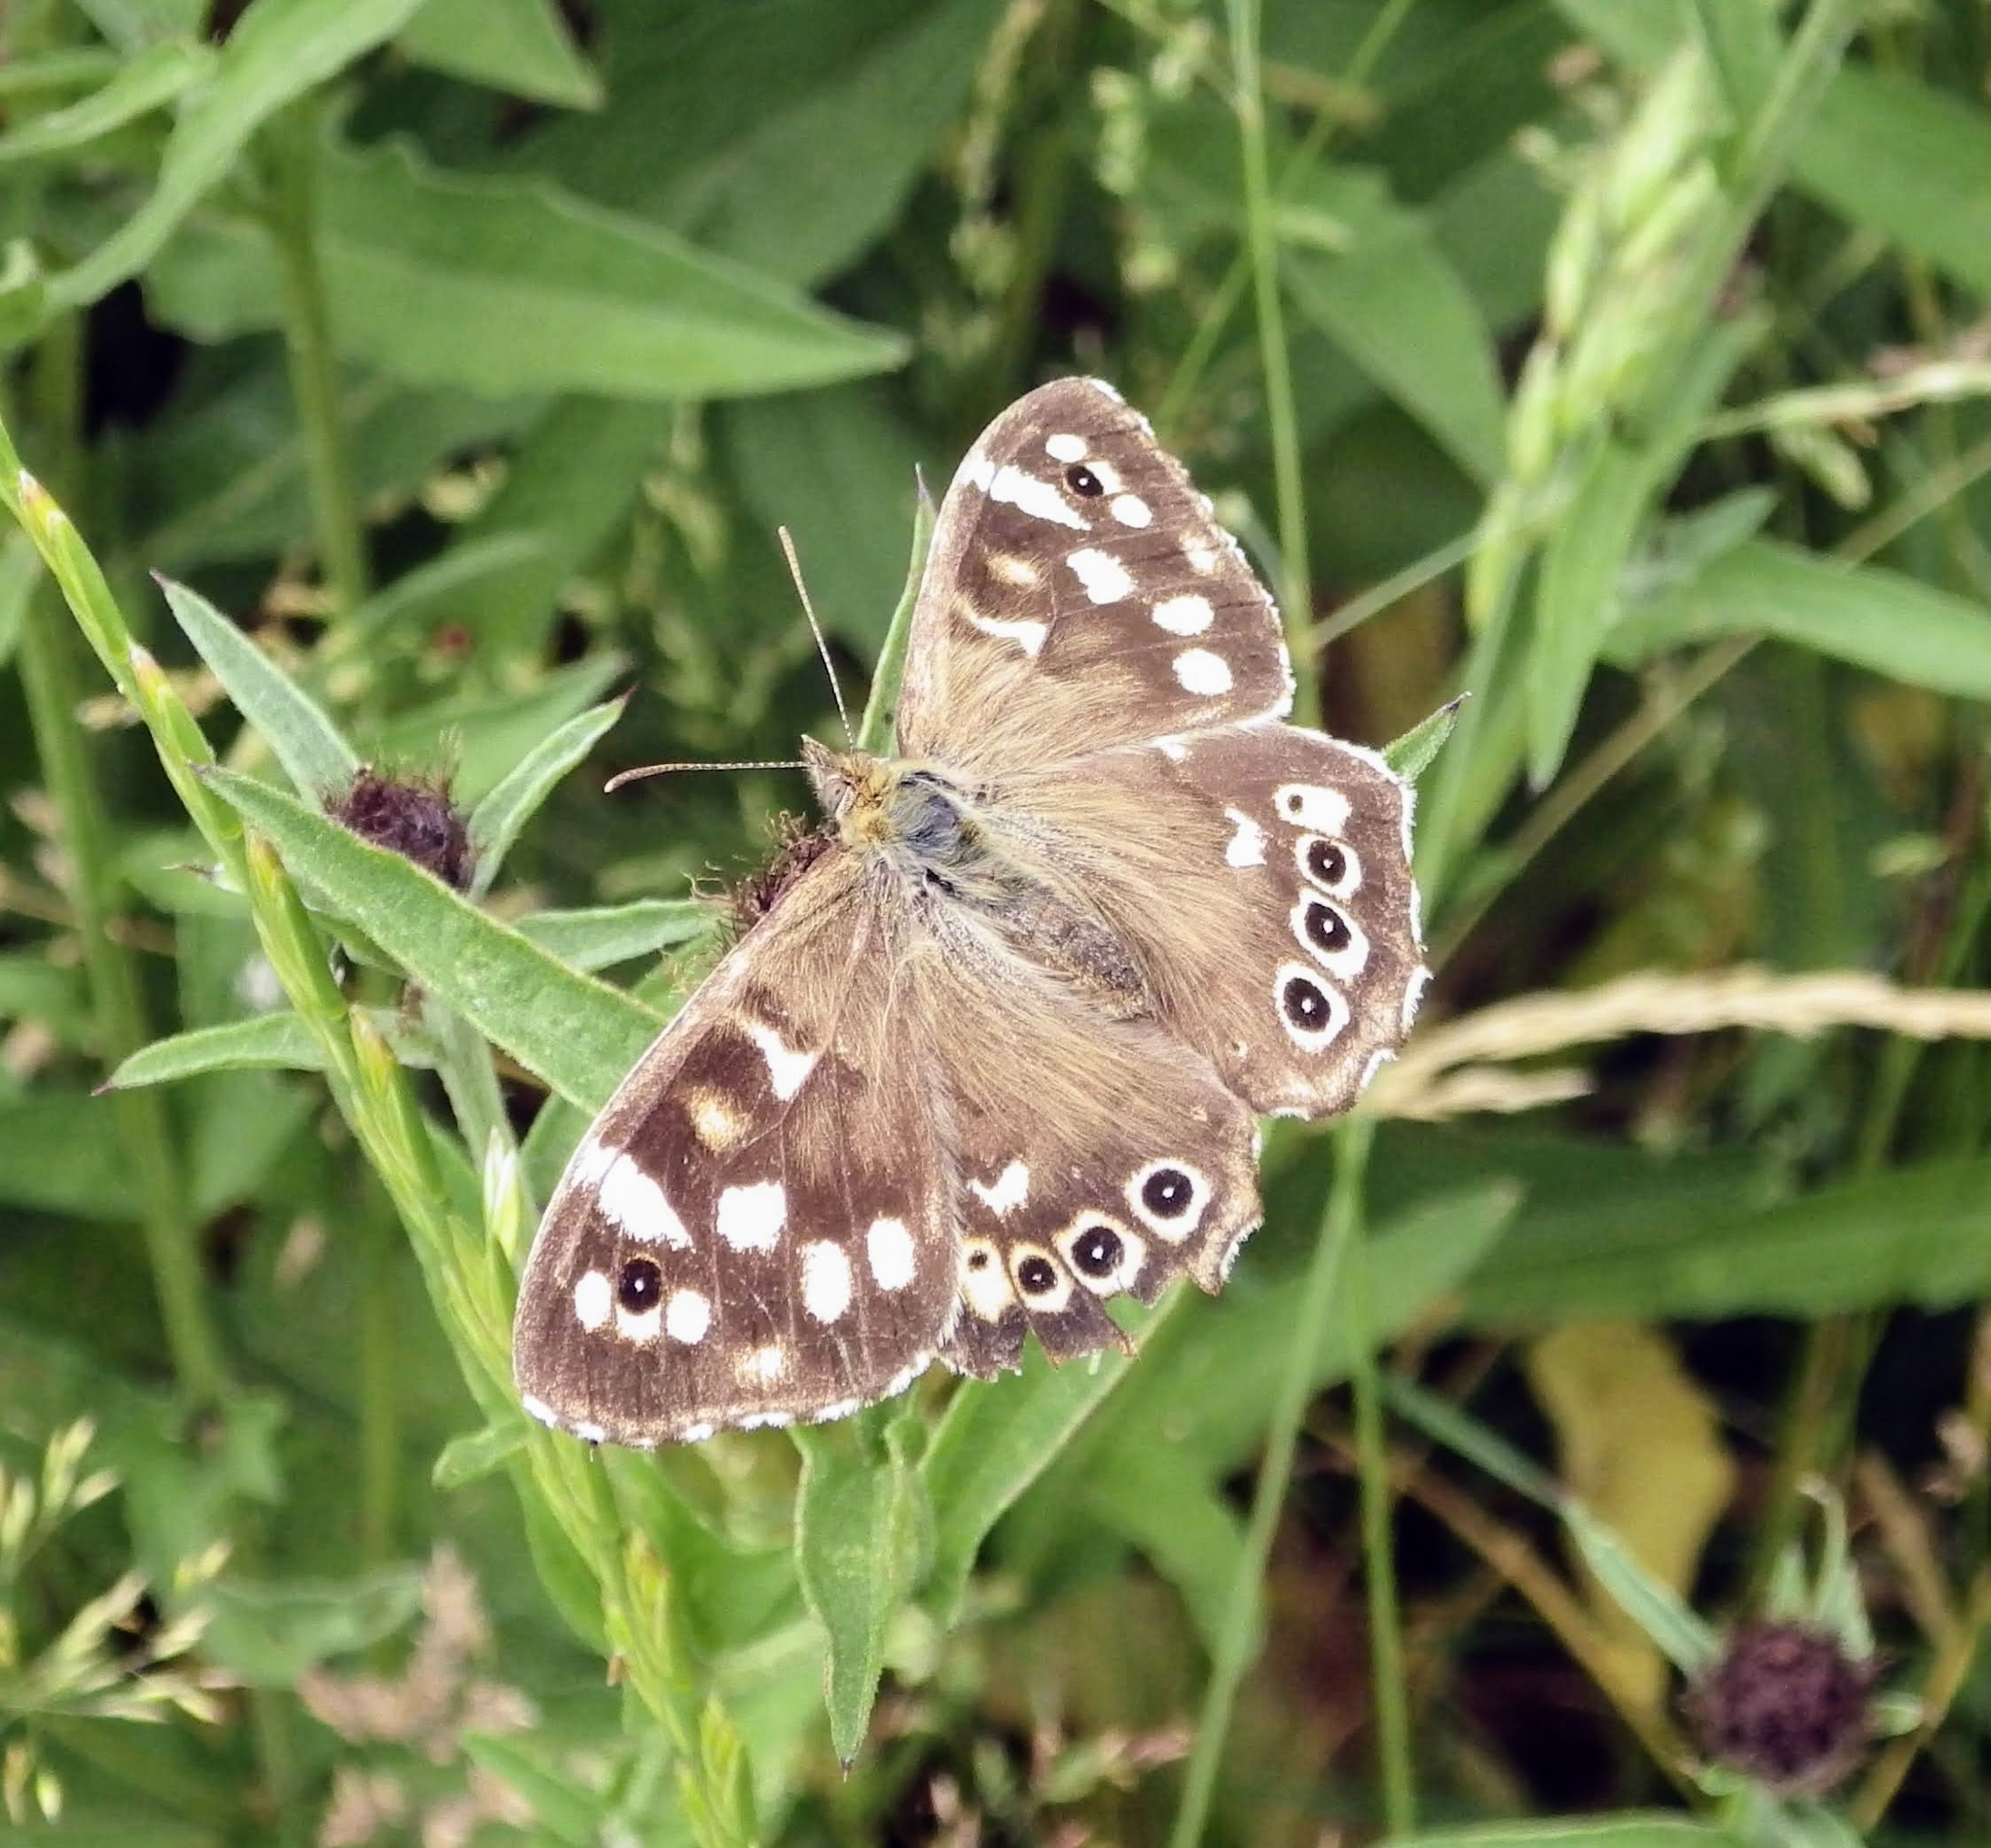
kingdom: Animalia
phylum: Arthropoda
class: Insecta
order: Lepidoptera
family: Nymphalidae
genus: Pararge
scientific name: Pararge aegeria
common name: Speckled wood
